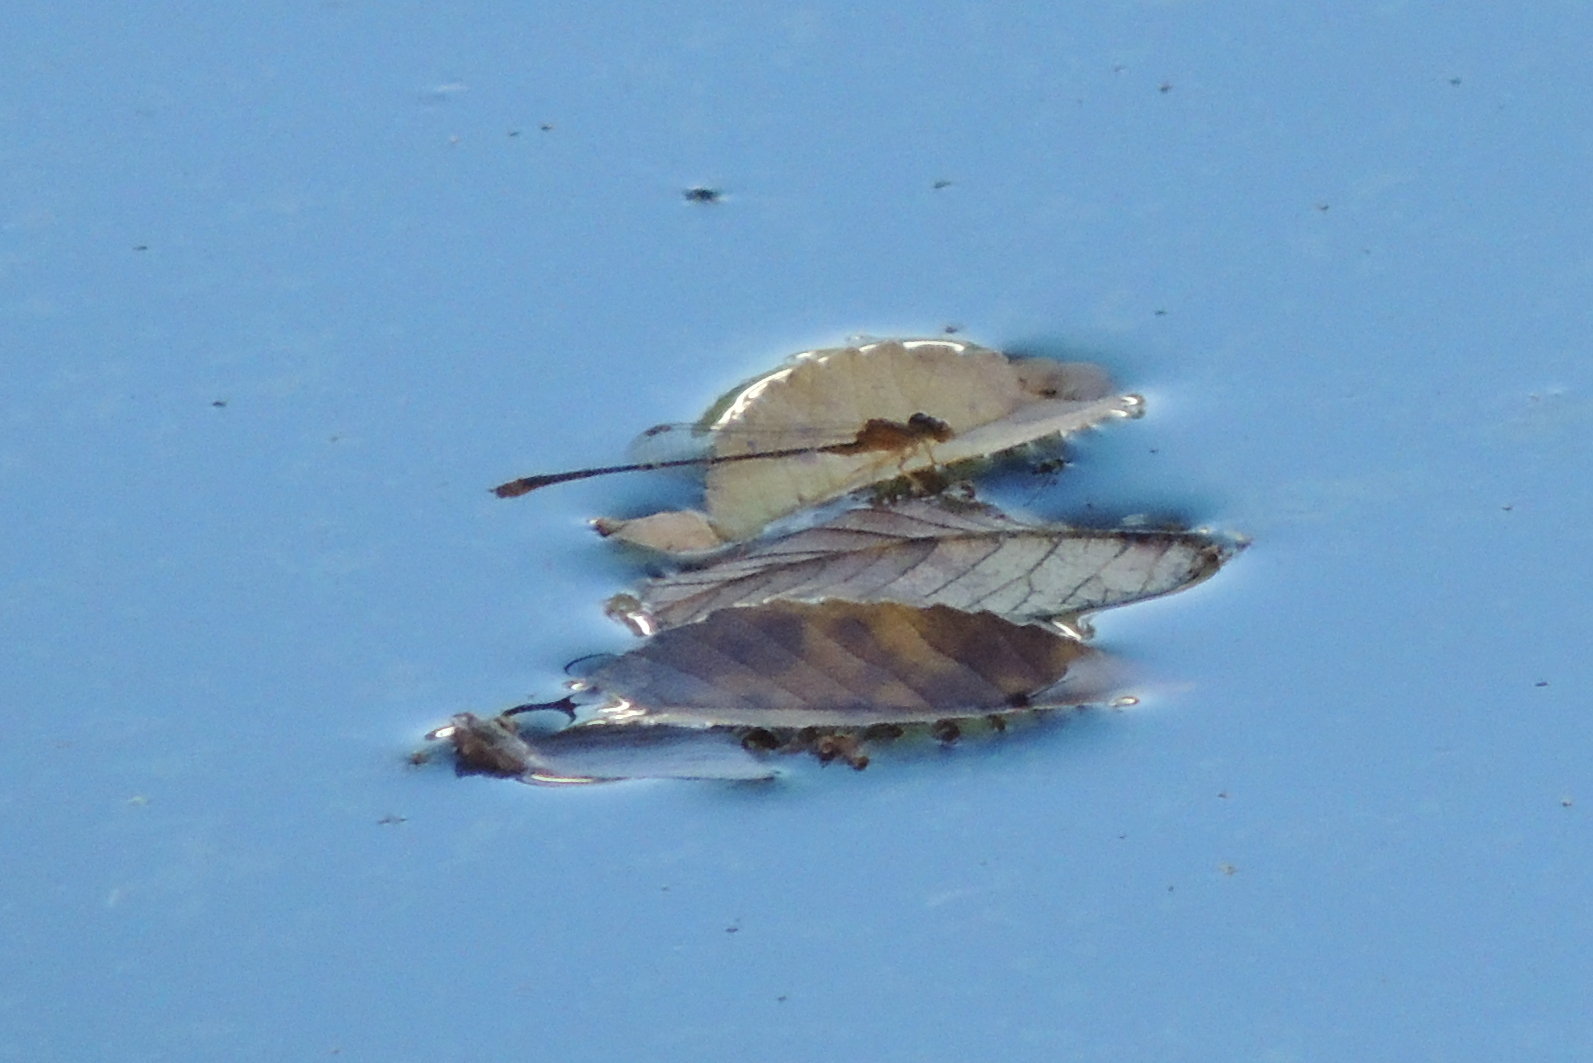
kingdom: Animalia
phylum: Arthropoda
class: Insecta
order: Odonata
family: Coenagrionidae
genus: Enallagma
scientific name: Enallagma signatum
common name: Orange bluet
